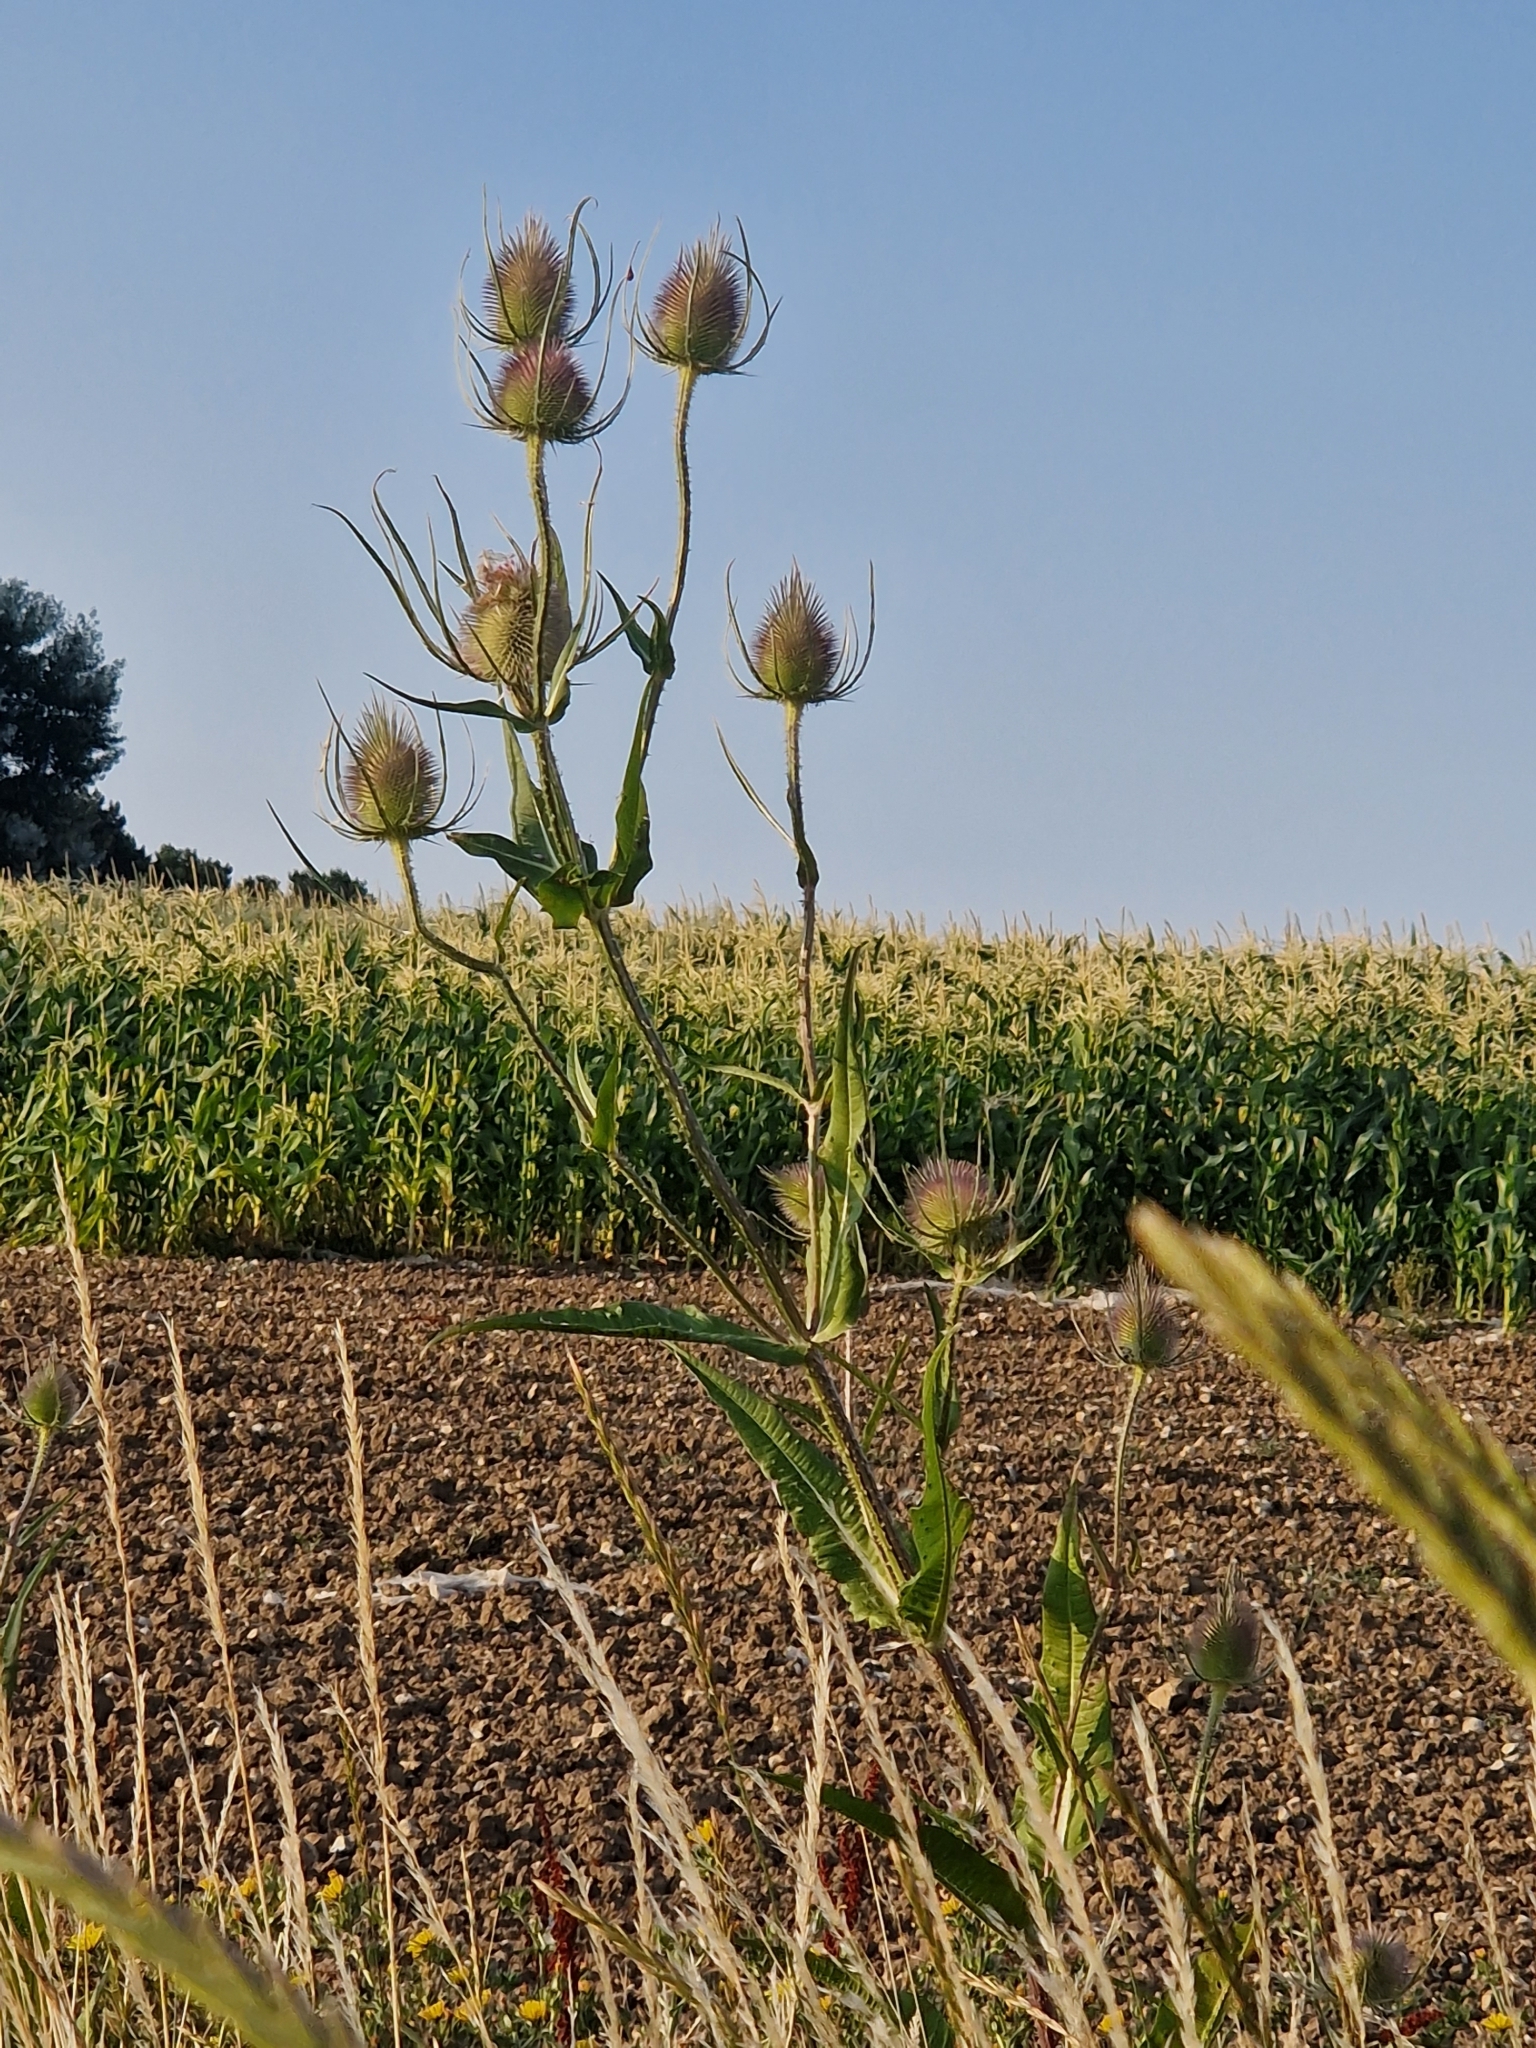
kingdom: Plantae
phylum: Tracheophyta
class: Magnoliopsida
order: Dipsacales
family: Caprifoliaceae
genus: Dipsacus
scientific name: Dipsacus fullonum
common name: Teasel
